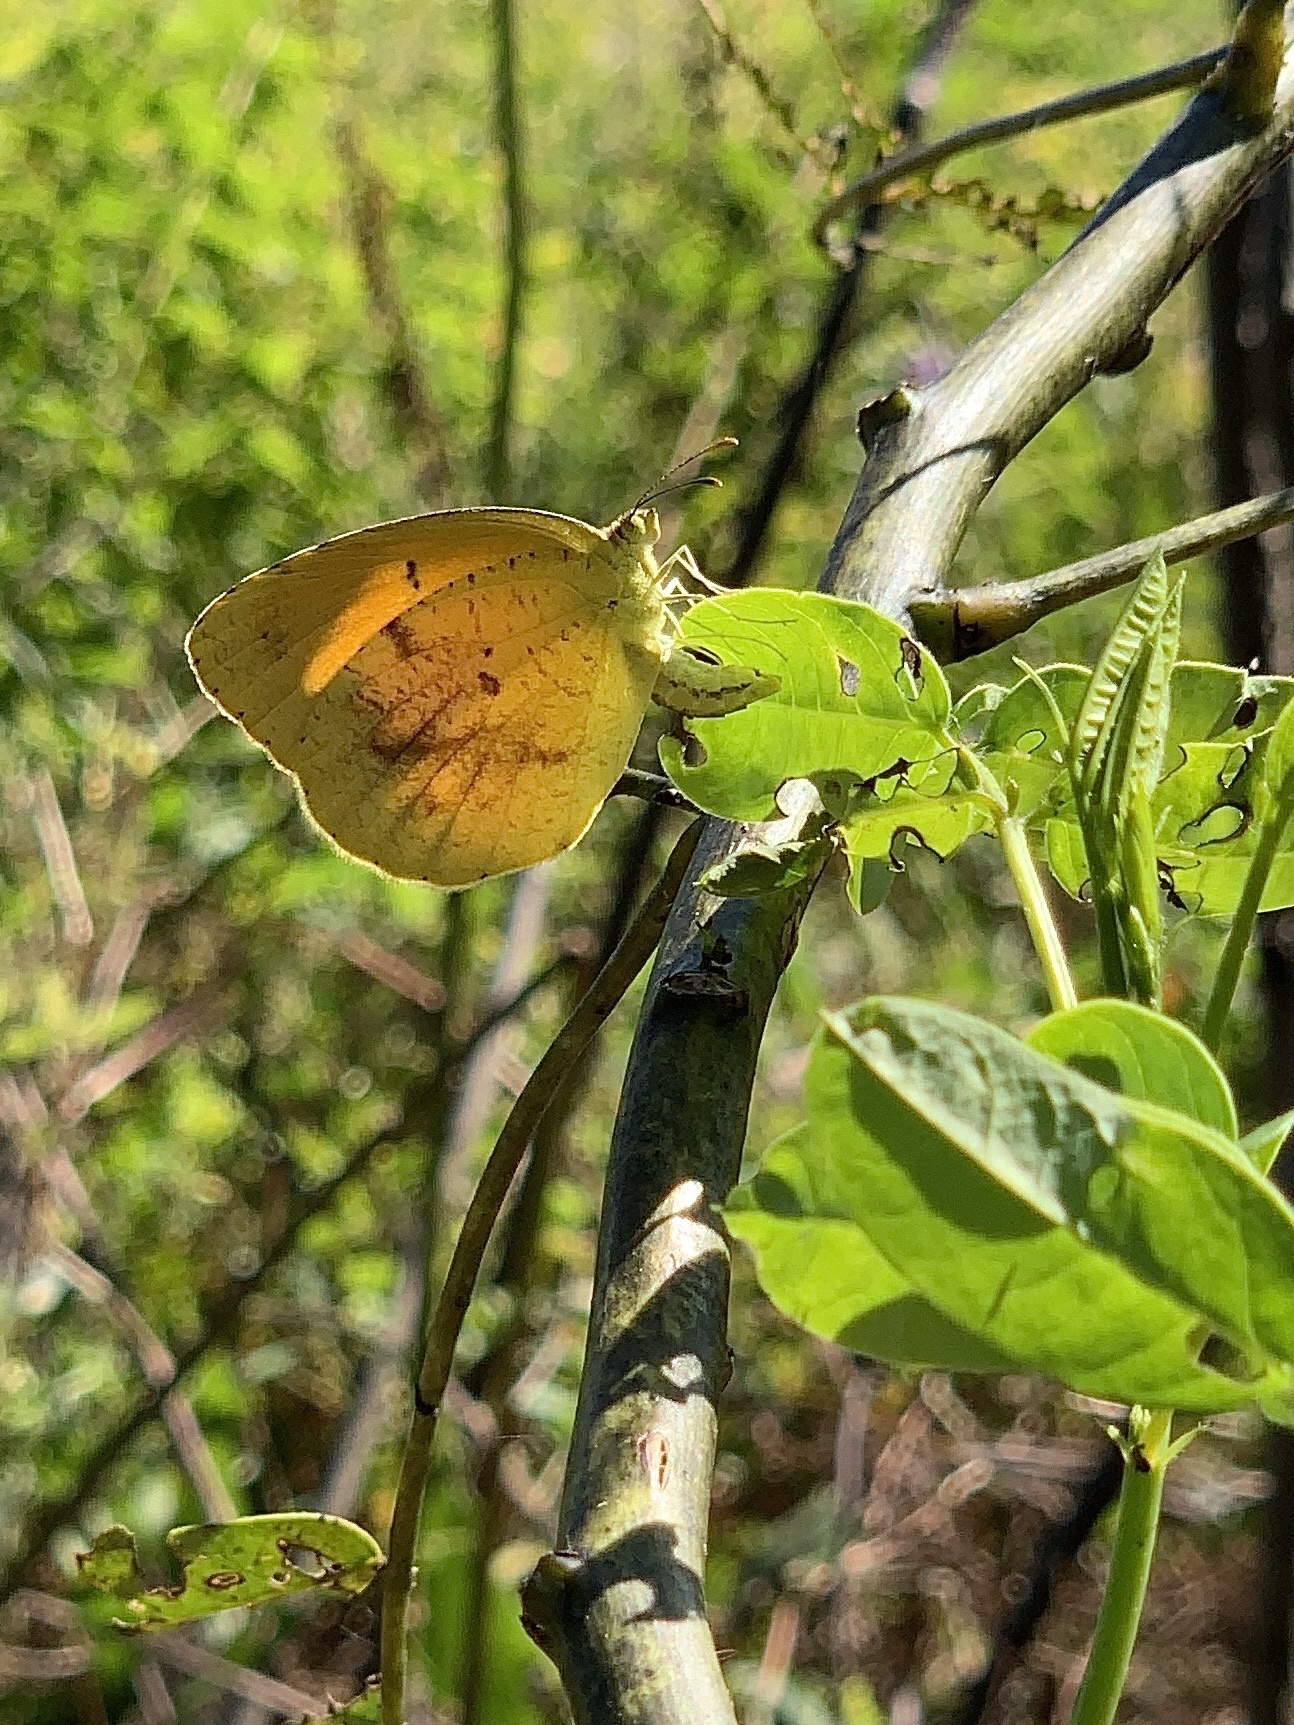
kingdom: Animalia
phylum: Arthropoda
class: Insecta
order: Lepidoptera
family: Pieridae
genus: Abaeis
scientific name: Abaeis nicippe
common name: Sleepy orange
